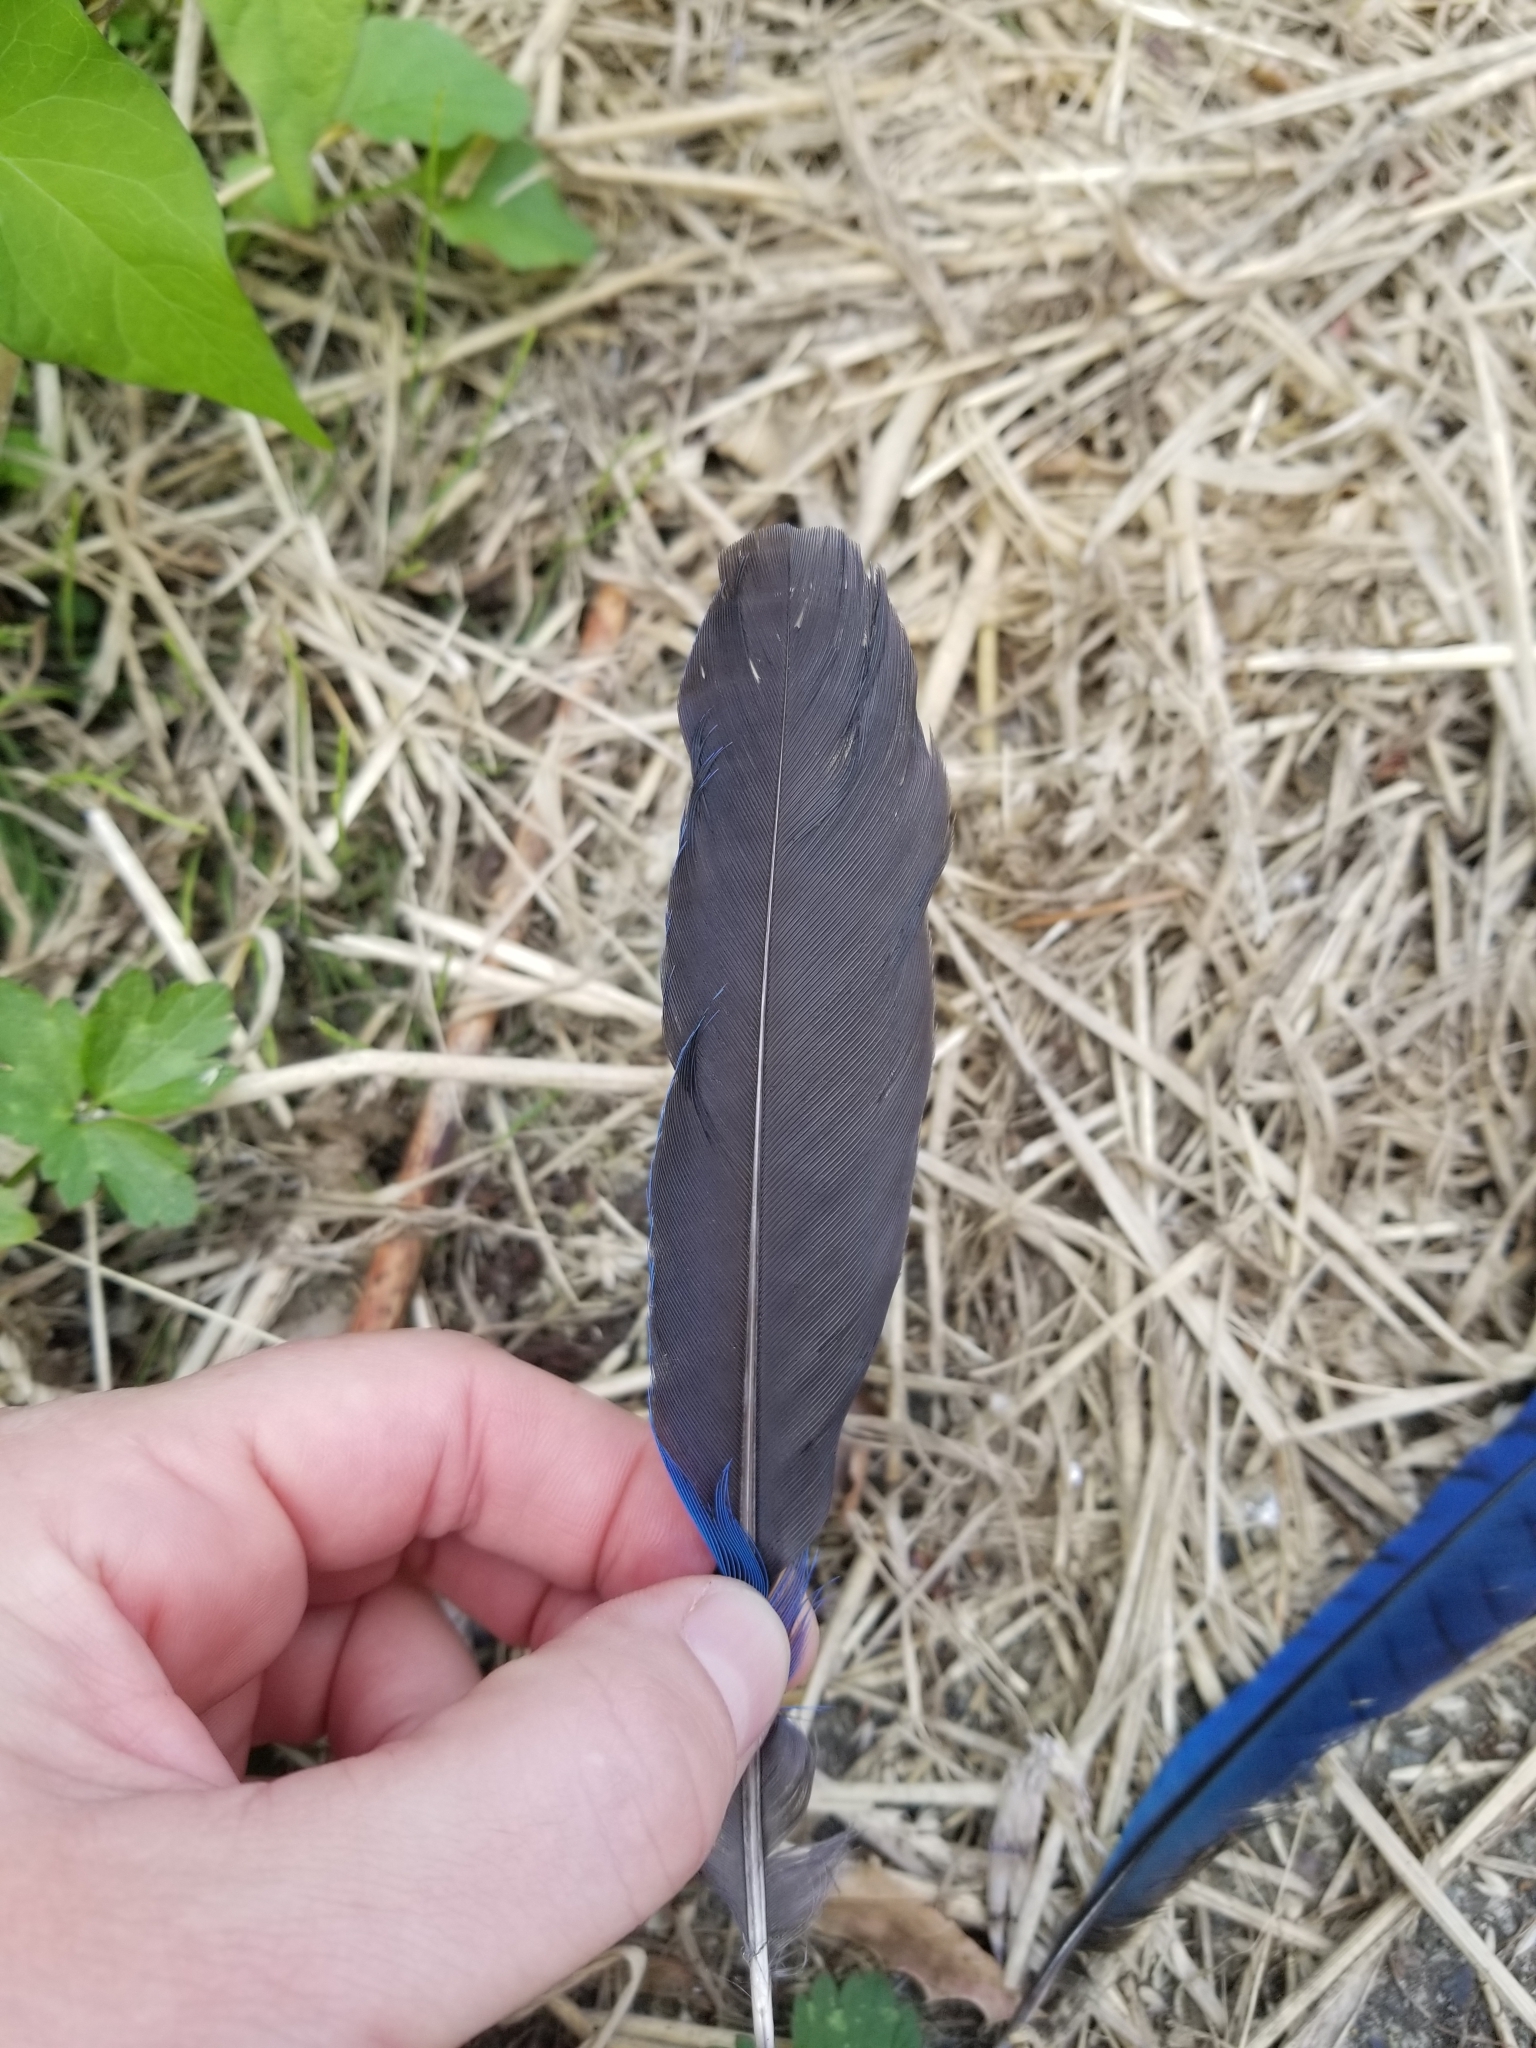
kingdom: Animalia
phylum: Chordata
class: Aves
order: Passeriformes
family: Corvidae
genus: Cyanocitta
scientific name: Cyanocitta stelleri
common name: Steller's jay
